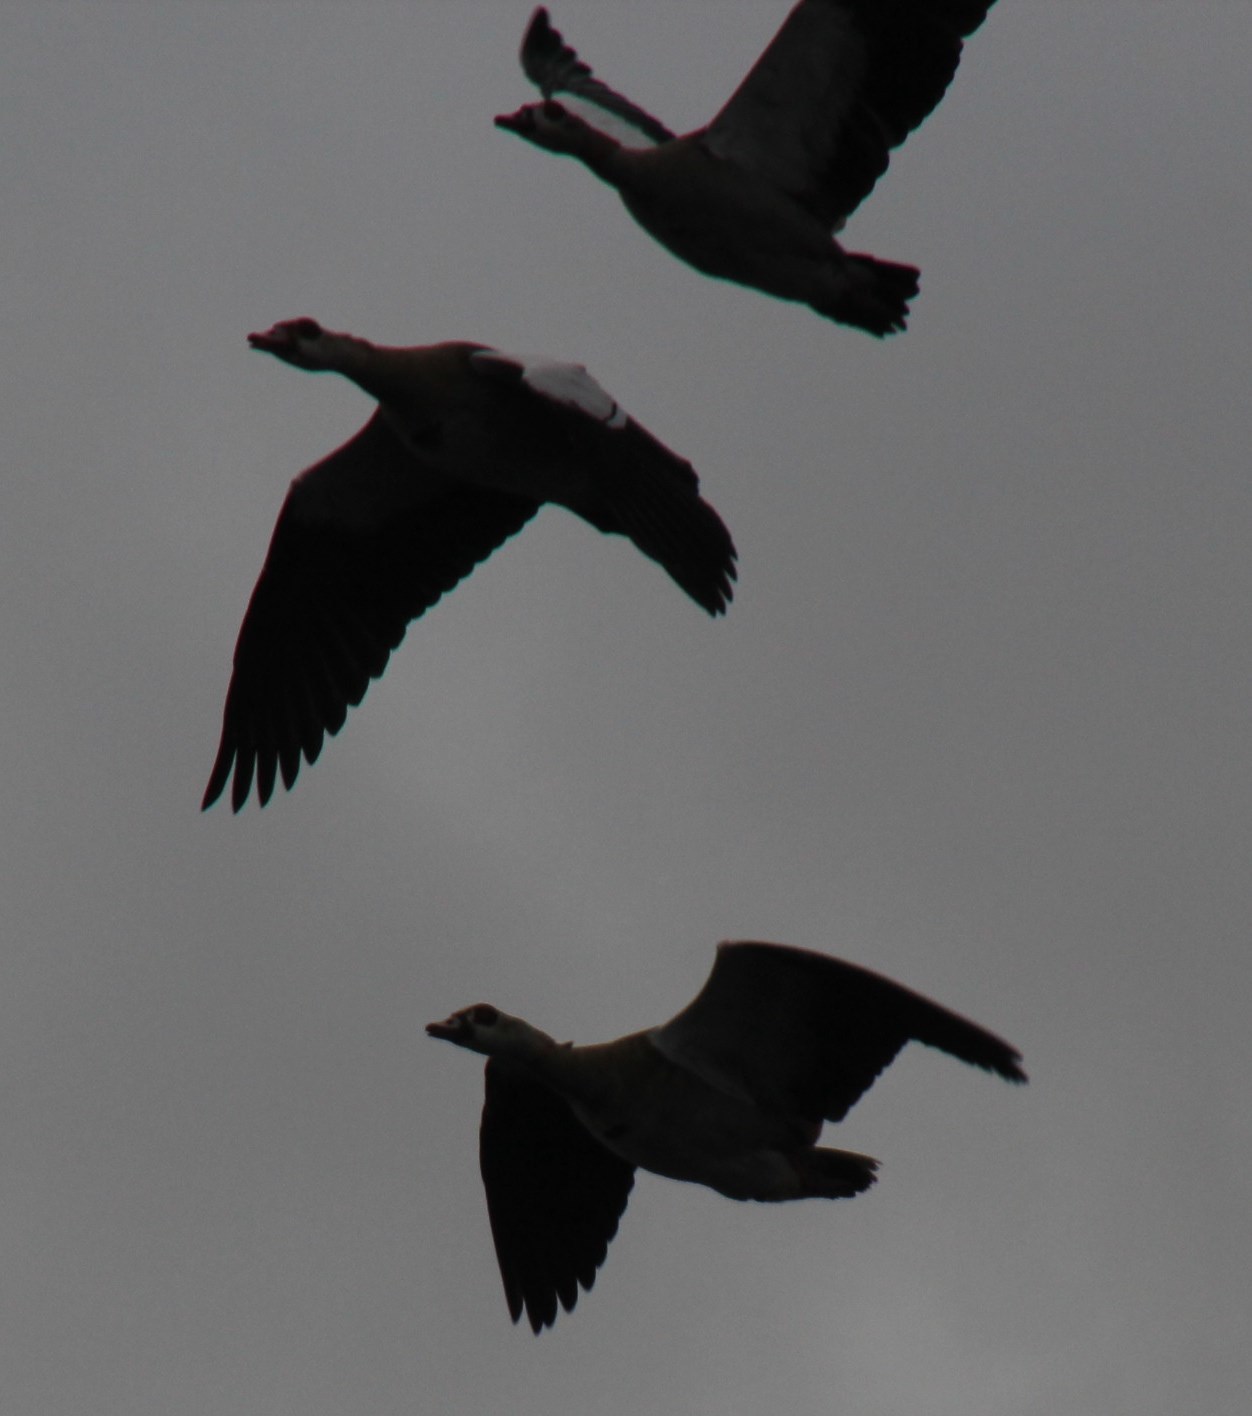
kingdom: Animalia
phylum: Chordata
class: Aves
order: Anseriformes
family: Anatidae
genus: Alopochen
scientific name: Alopochen aegyptiaca
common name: Egyptian goose
